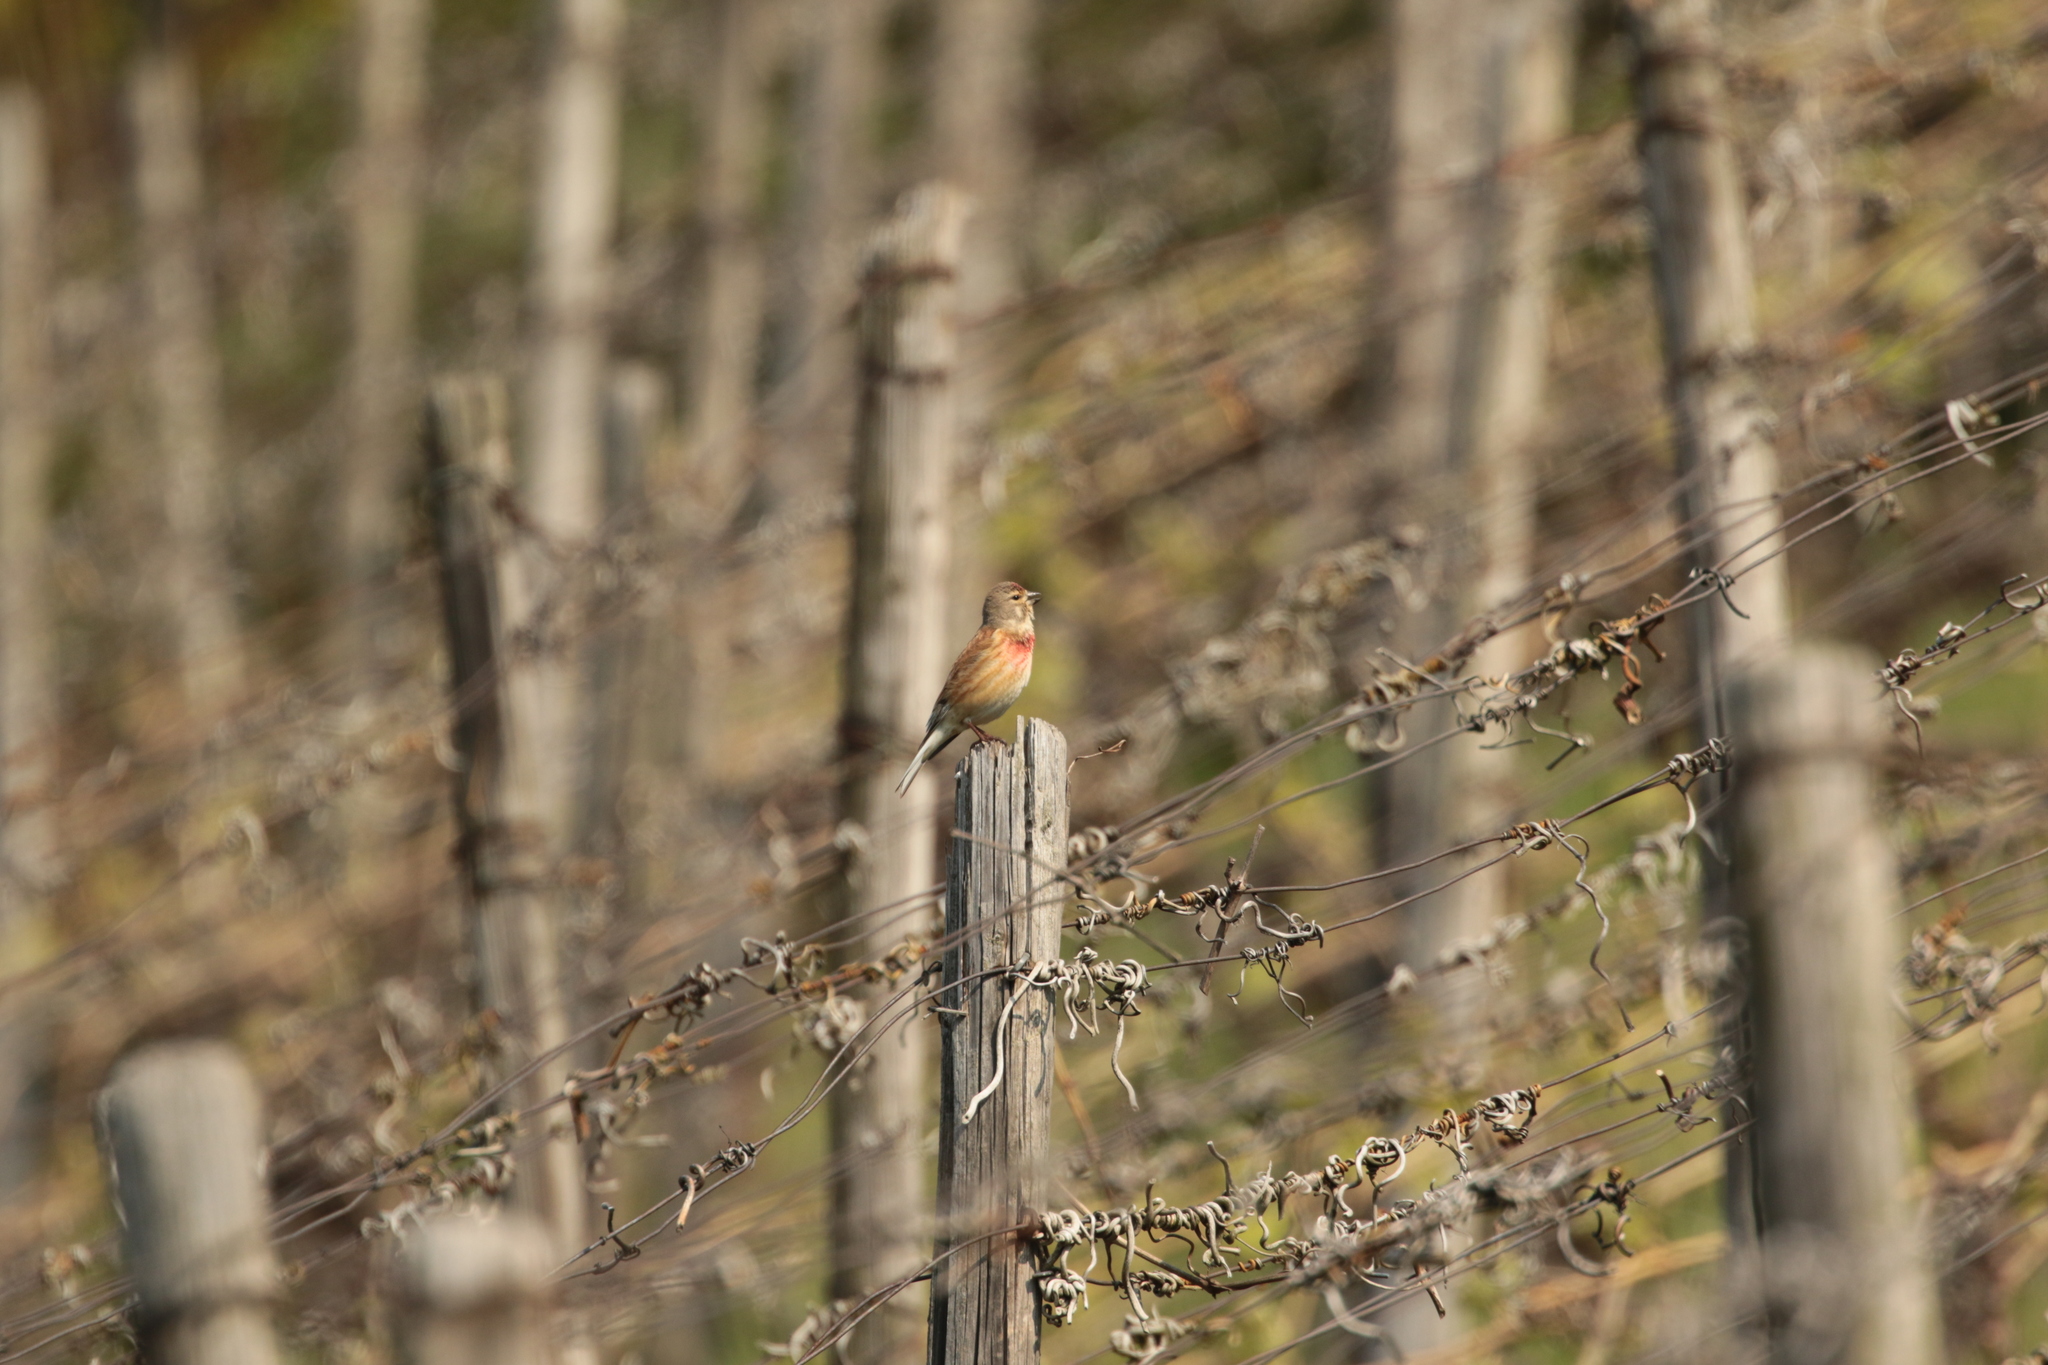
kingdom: Animalia
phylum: Chordata
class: Aves
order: Passeriformes
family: Fringillidae
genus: Linaria
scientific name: Linaria cannabina
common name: Common linnet
